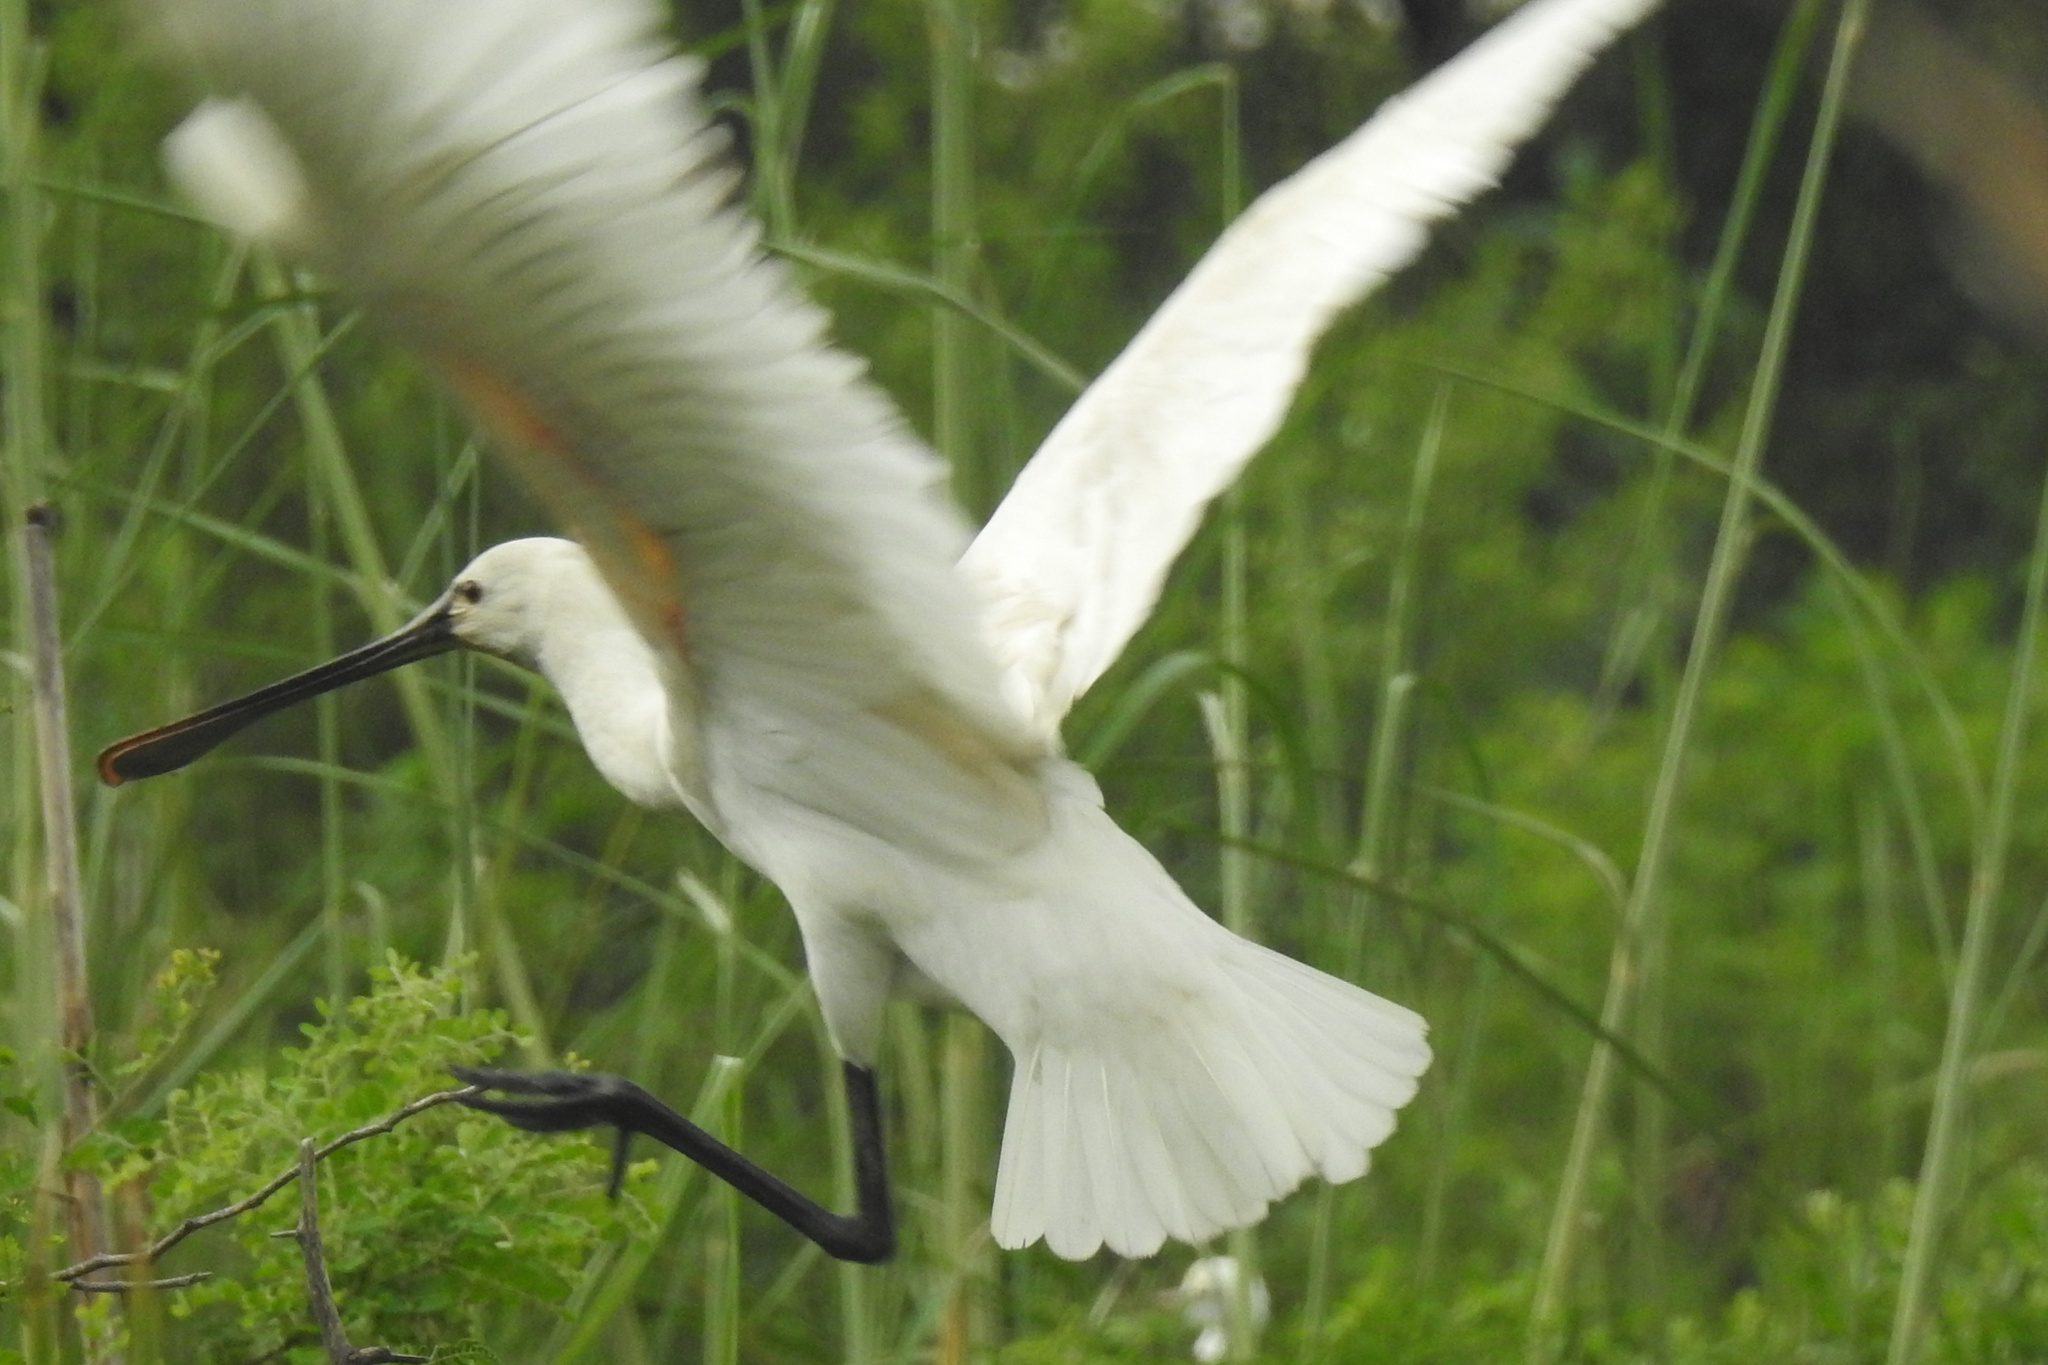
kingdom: Animalia
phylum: Chordata
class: Aves
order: Pelecaniformes
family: Threskiornithidae
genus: Platalea
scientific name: Platalea leucorodia
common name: Eurasian spoonbill
